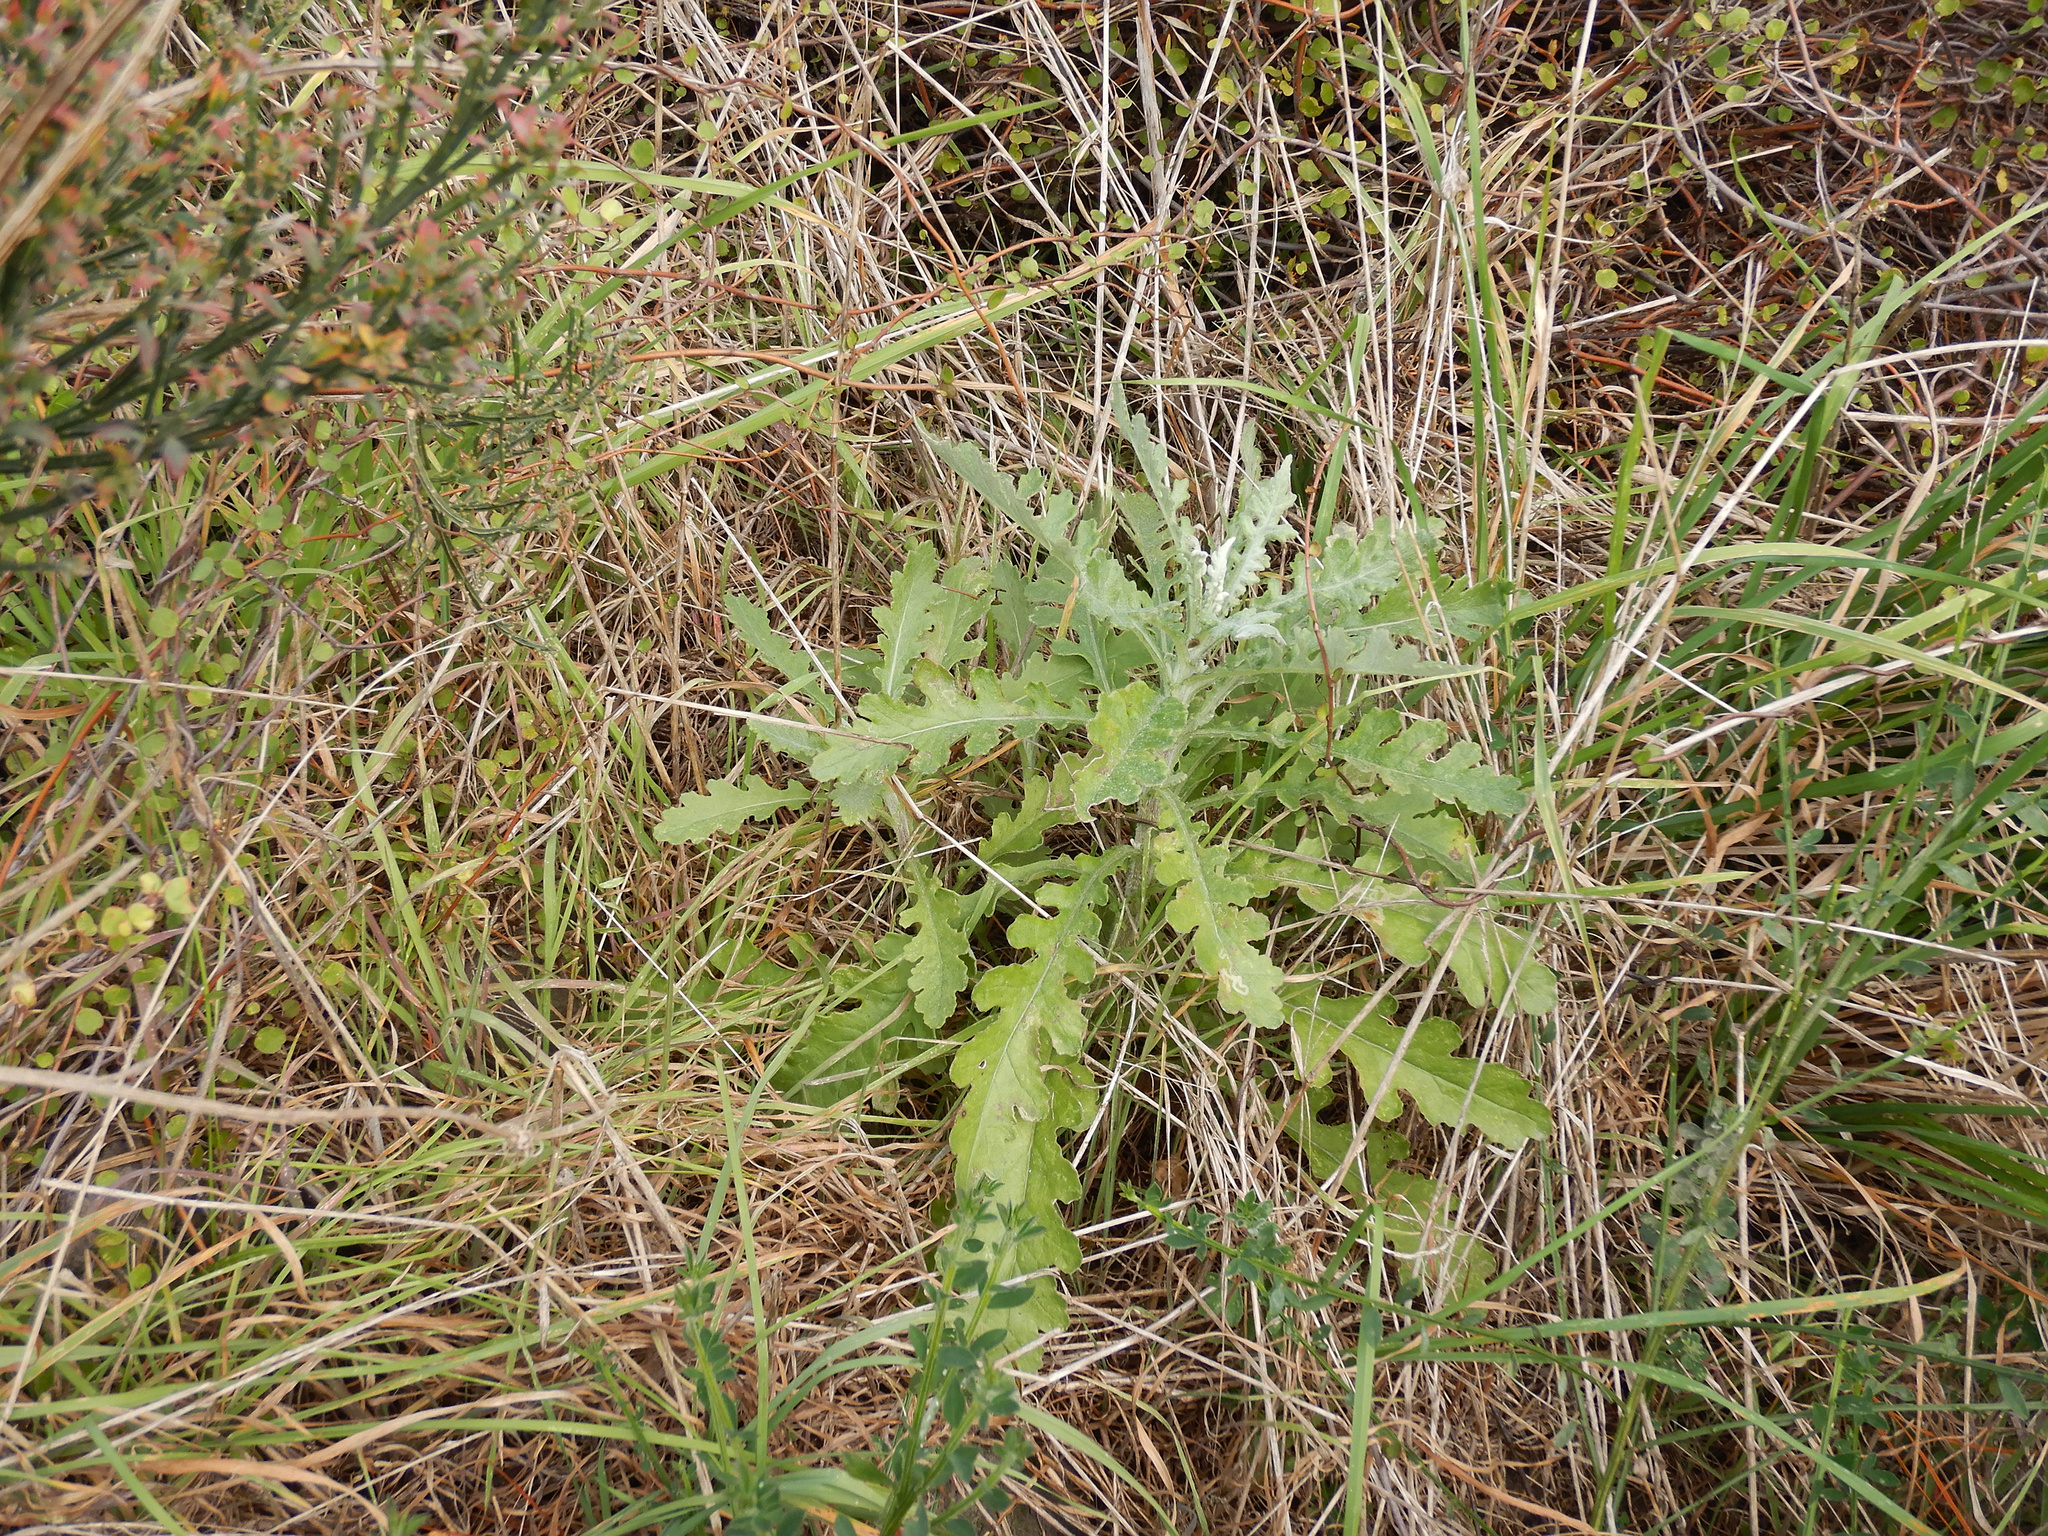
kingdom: Plantae
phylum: Tracheophyta
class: Magnoliopsida
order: Asterales
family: Asteraceae
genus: Senecio
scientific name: Senecio glomeratus
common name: Cutleaf burnweed
